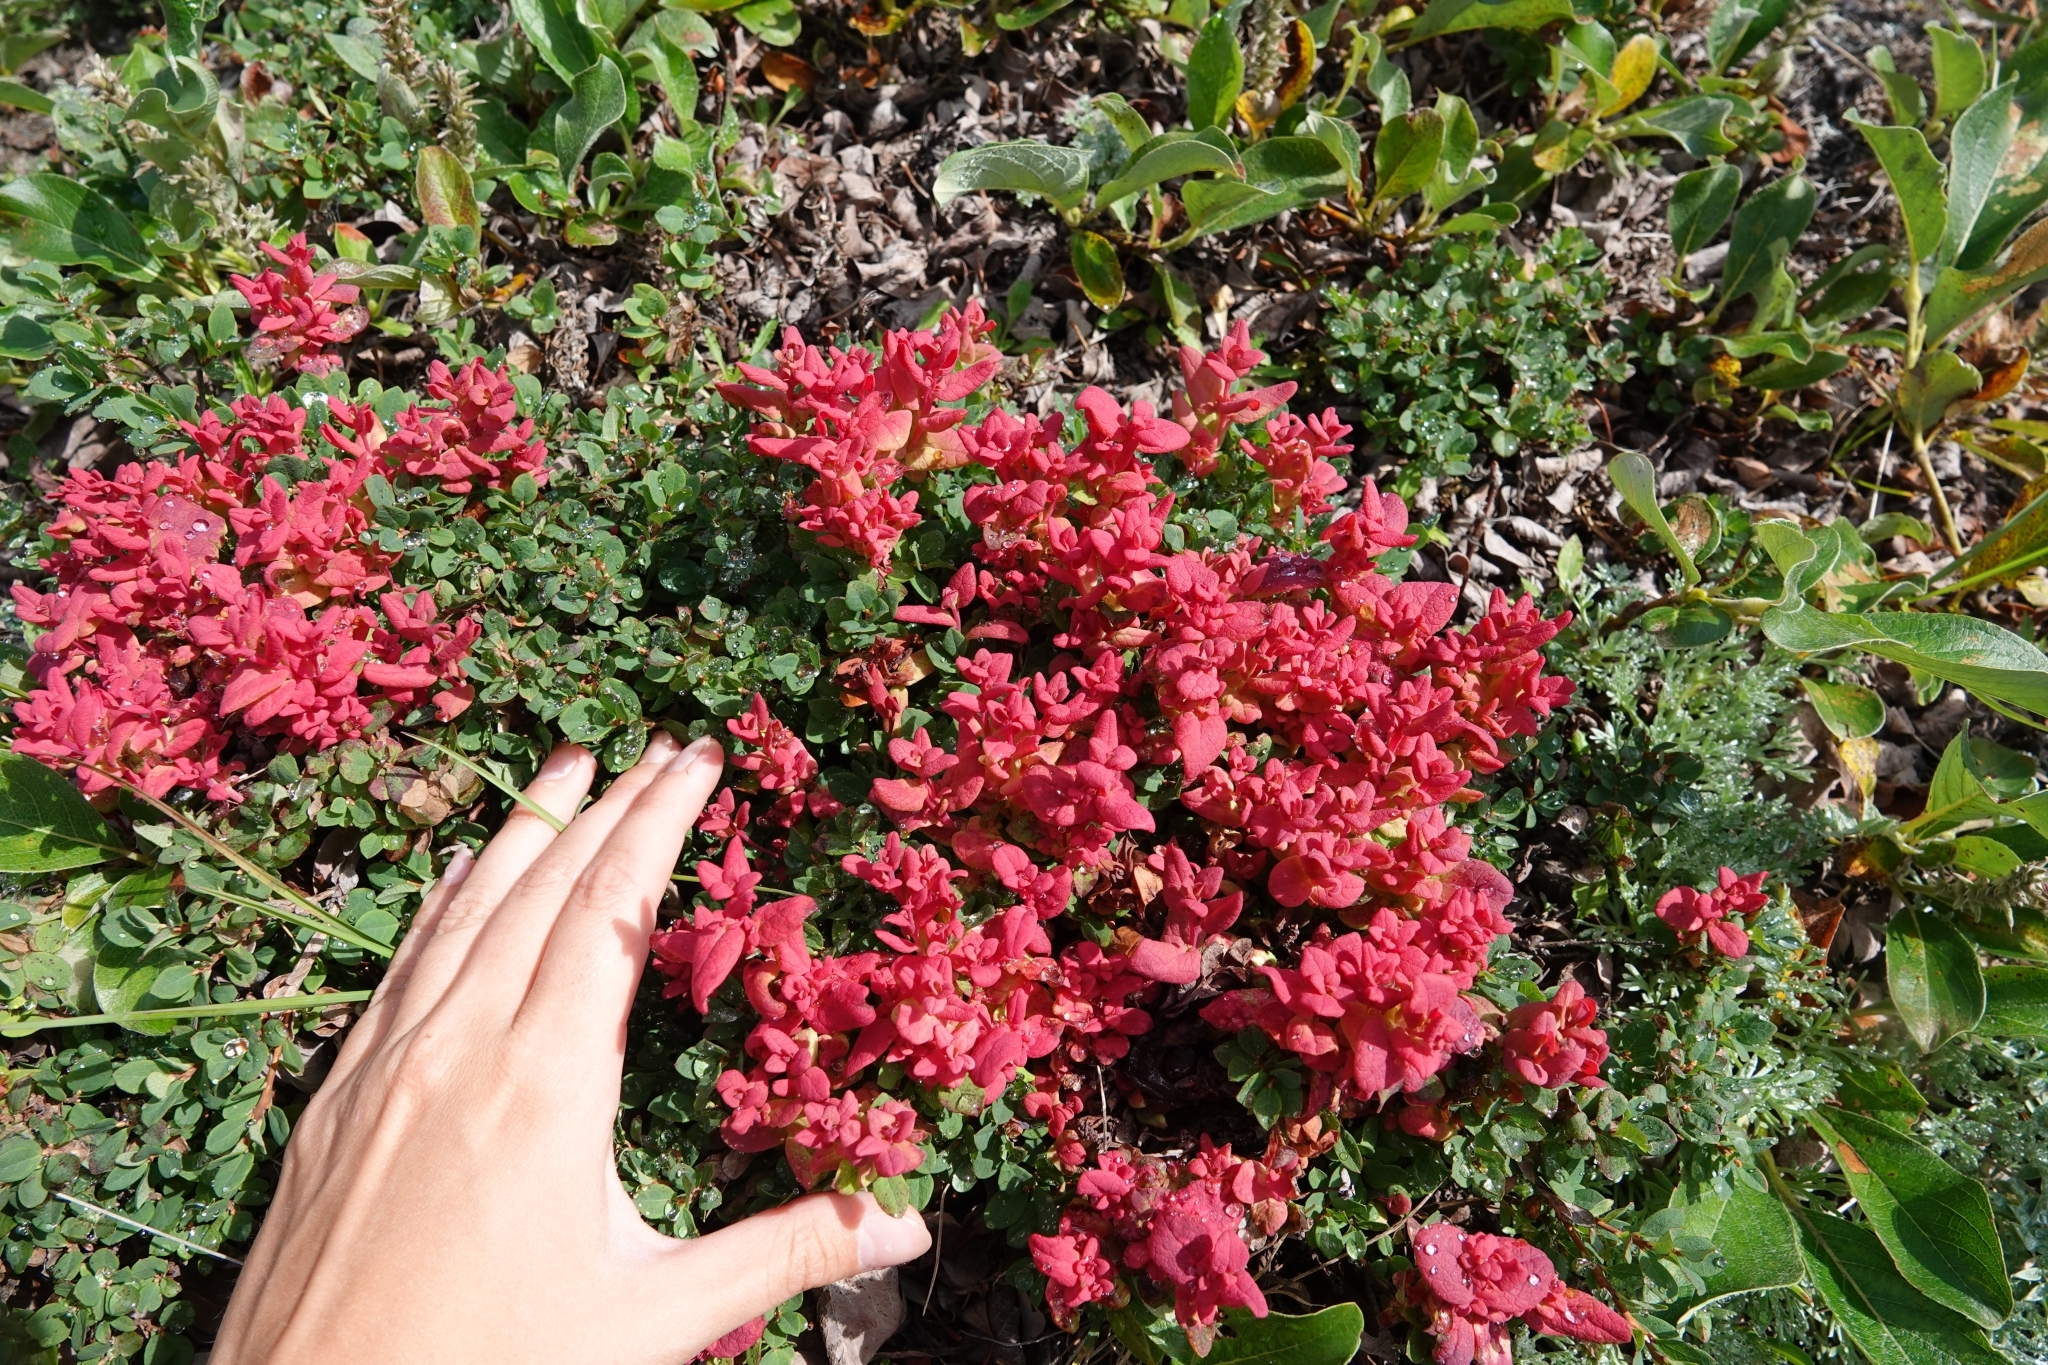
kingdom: Fungi
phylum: Basidiomycota
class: Exobasidiomycetes
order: Exobasidiales
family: Exobasidiaceae
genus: Exobasidium
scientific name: Exobasidium vaccinii-uliginosi
